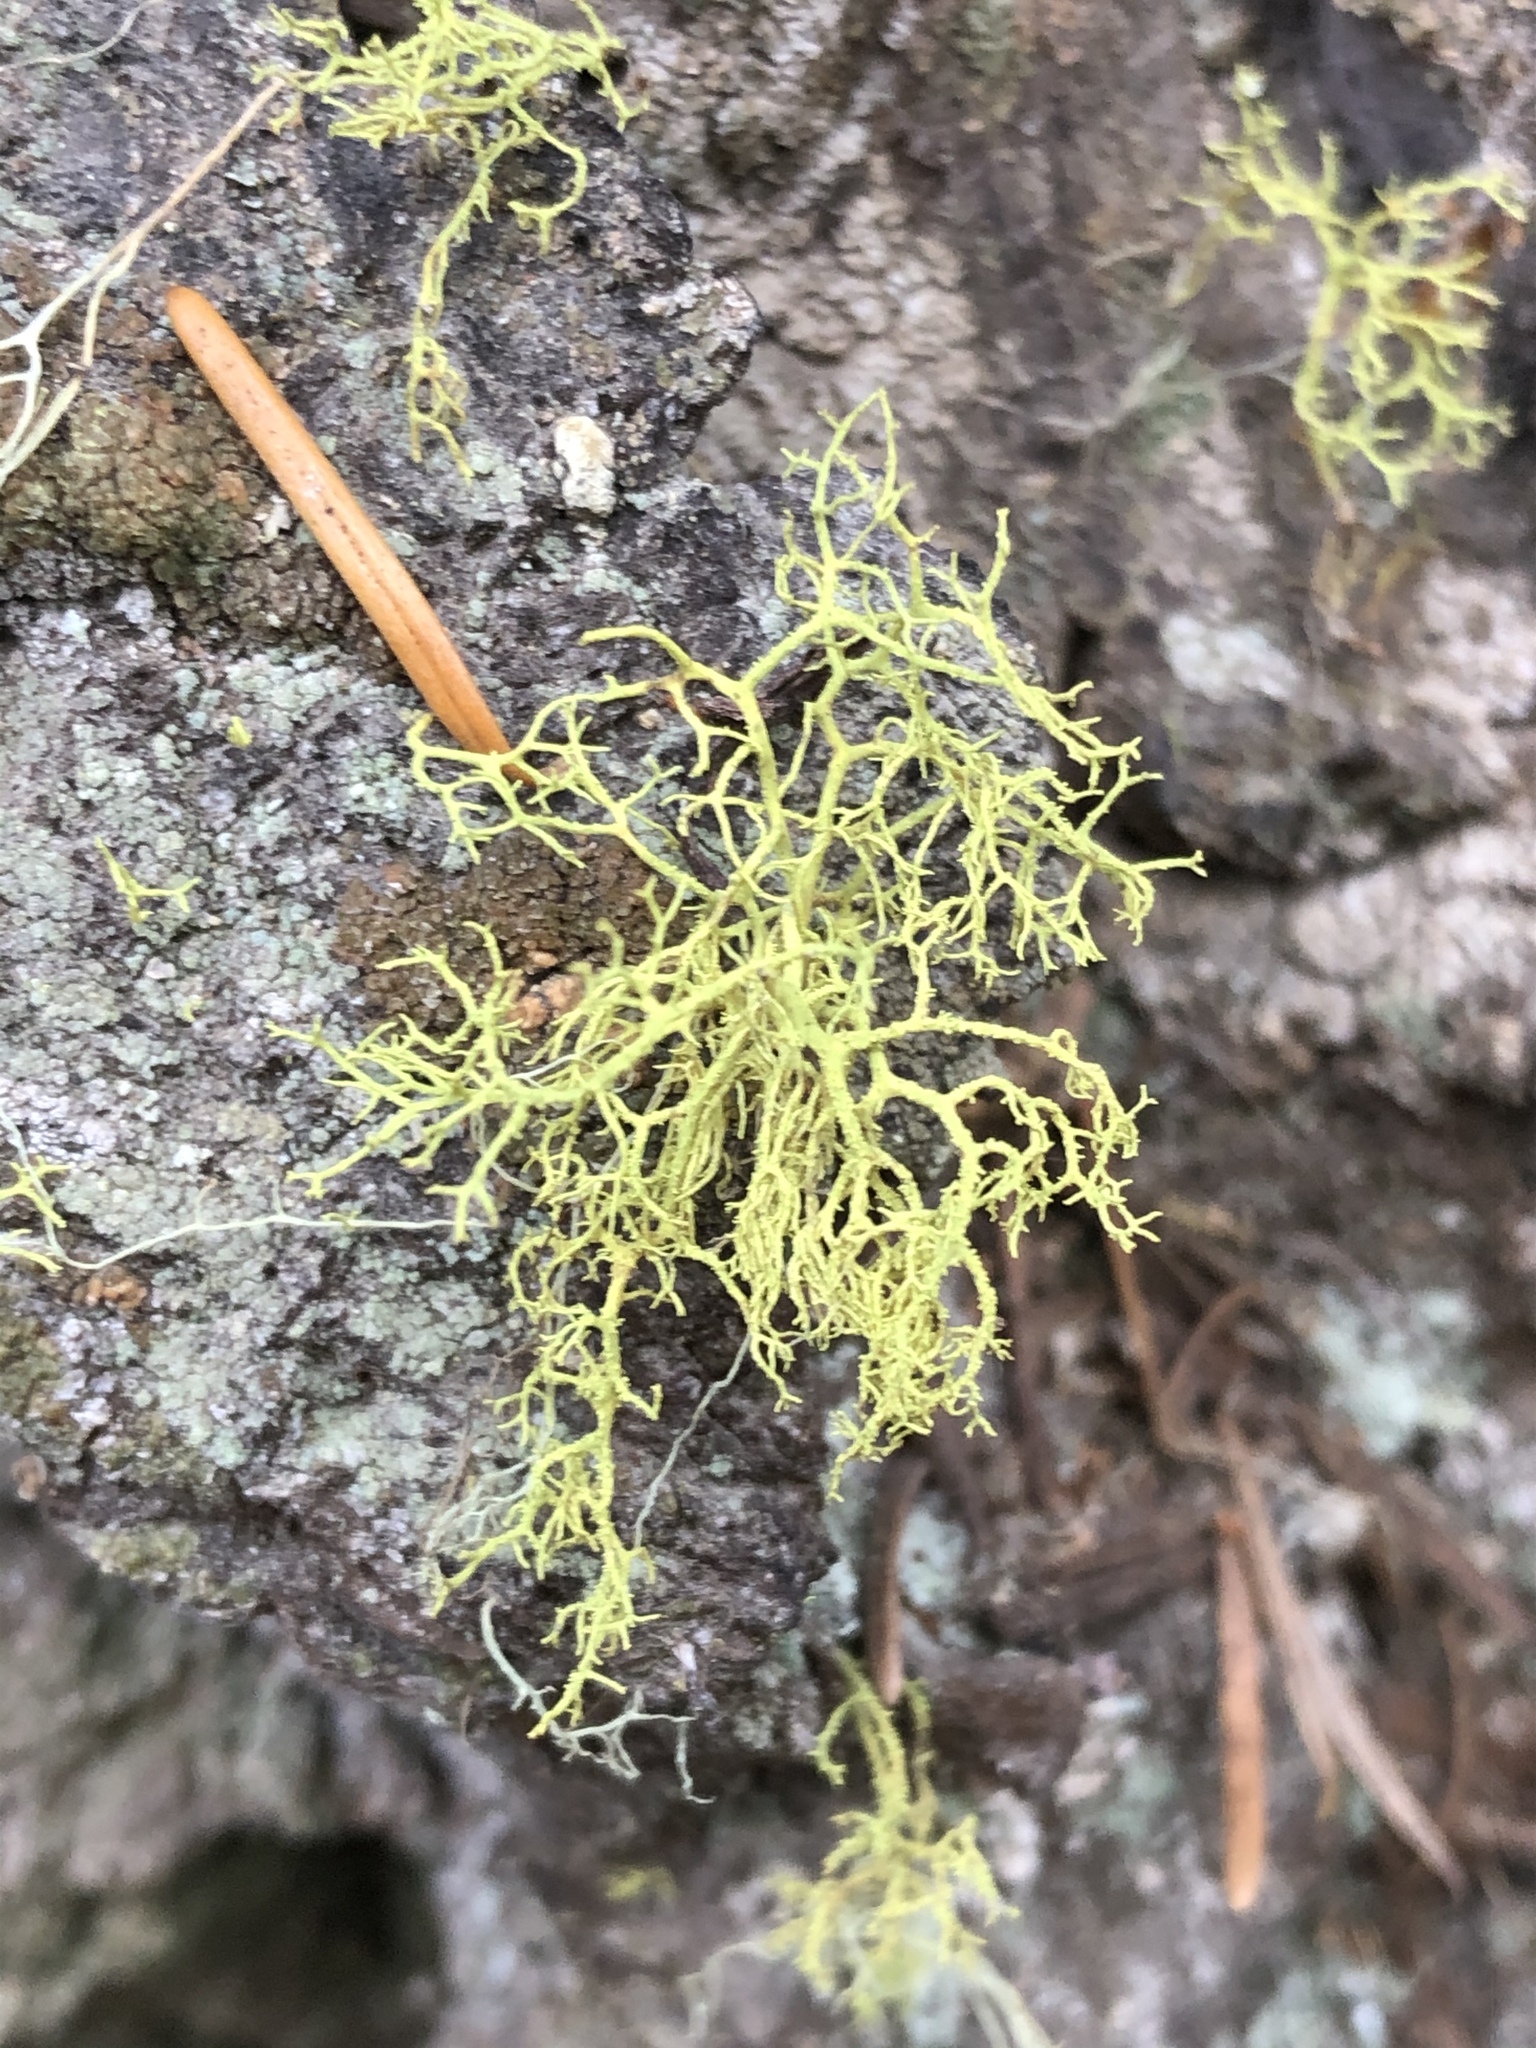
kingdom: Fungi
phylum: Ascomycota
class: Lecanoromycetes
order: Lecanorales
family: Parmeliaceae
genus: Letharia
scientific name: Letharia vulpina
